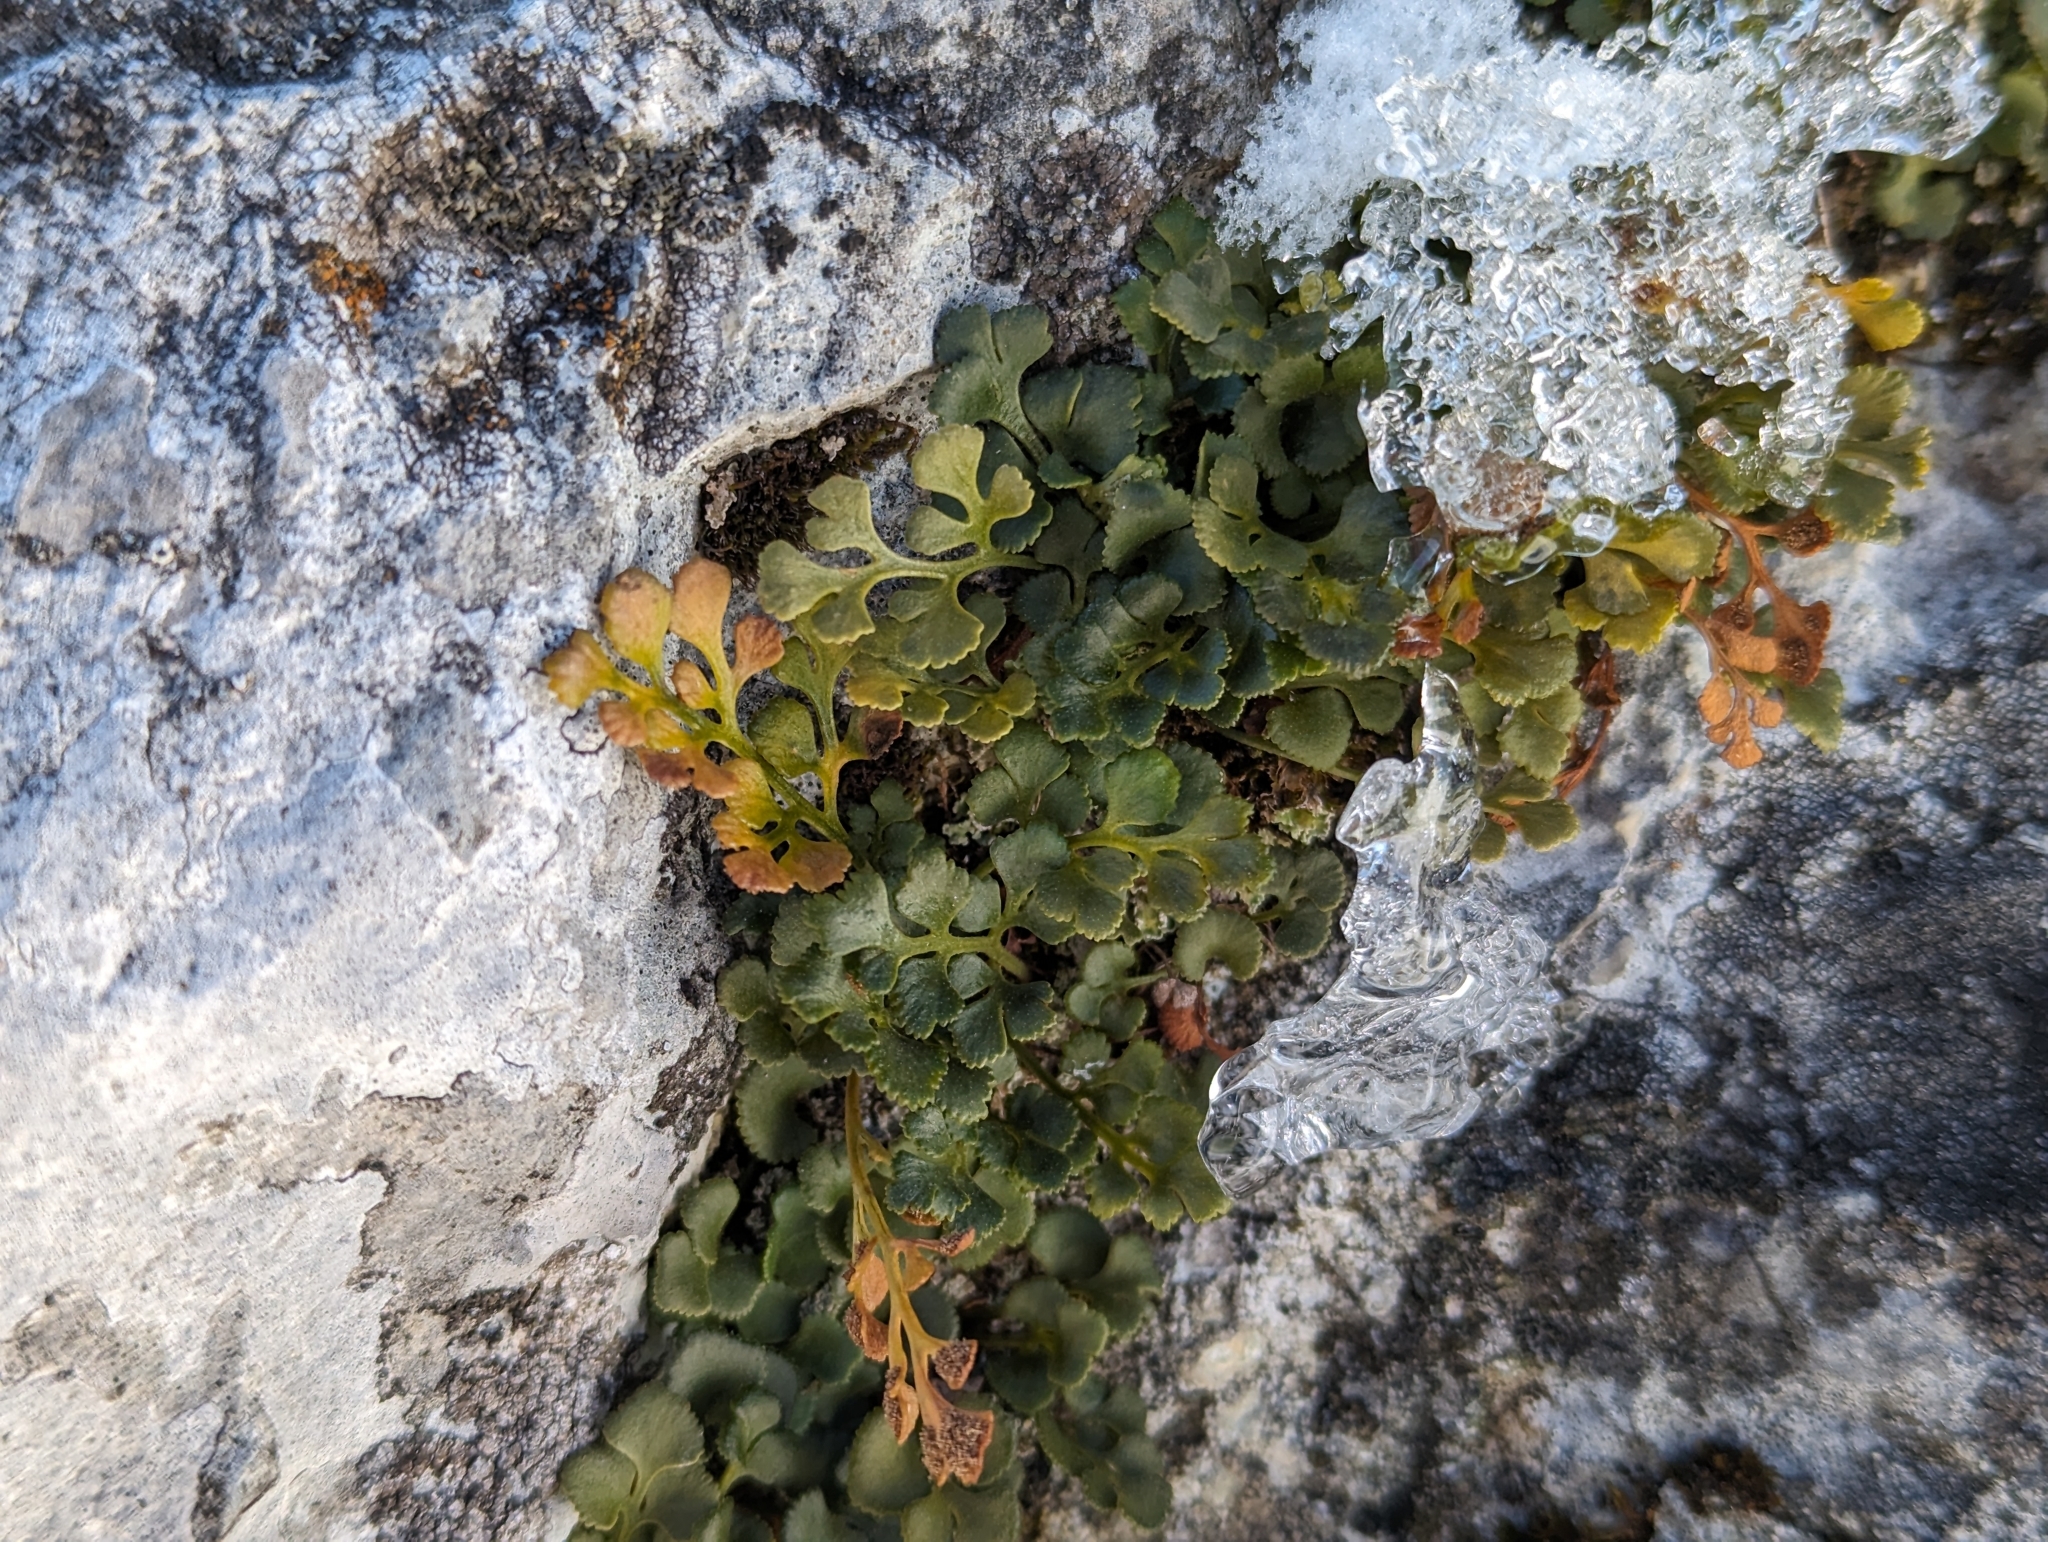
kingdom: Plantae
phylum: Tracheophyta
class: Polypodiopsida
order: Polypodiales
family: Aspleniaceae
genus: Asplenium
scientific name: Asplenium ruta-muraria
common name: Wall-rue
